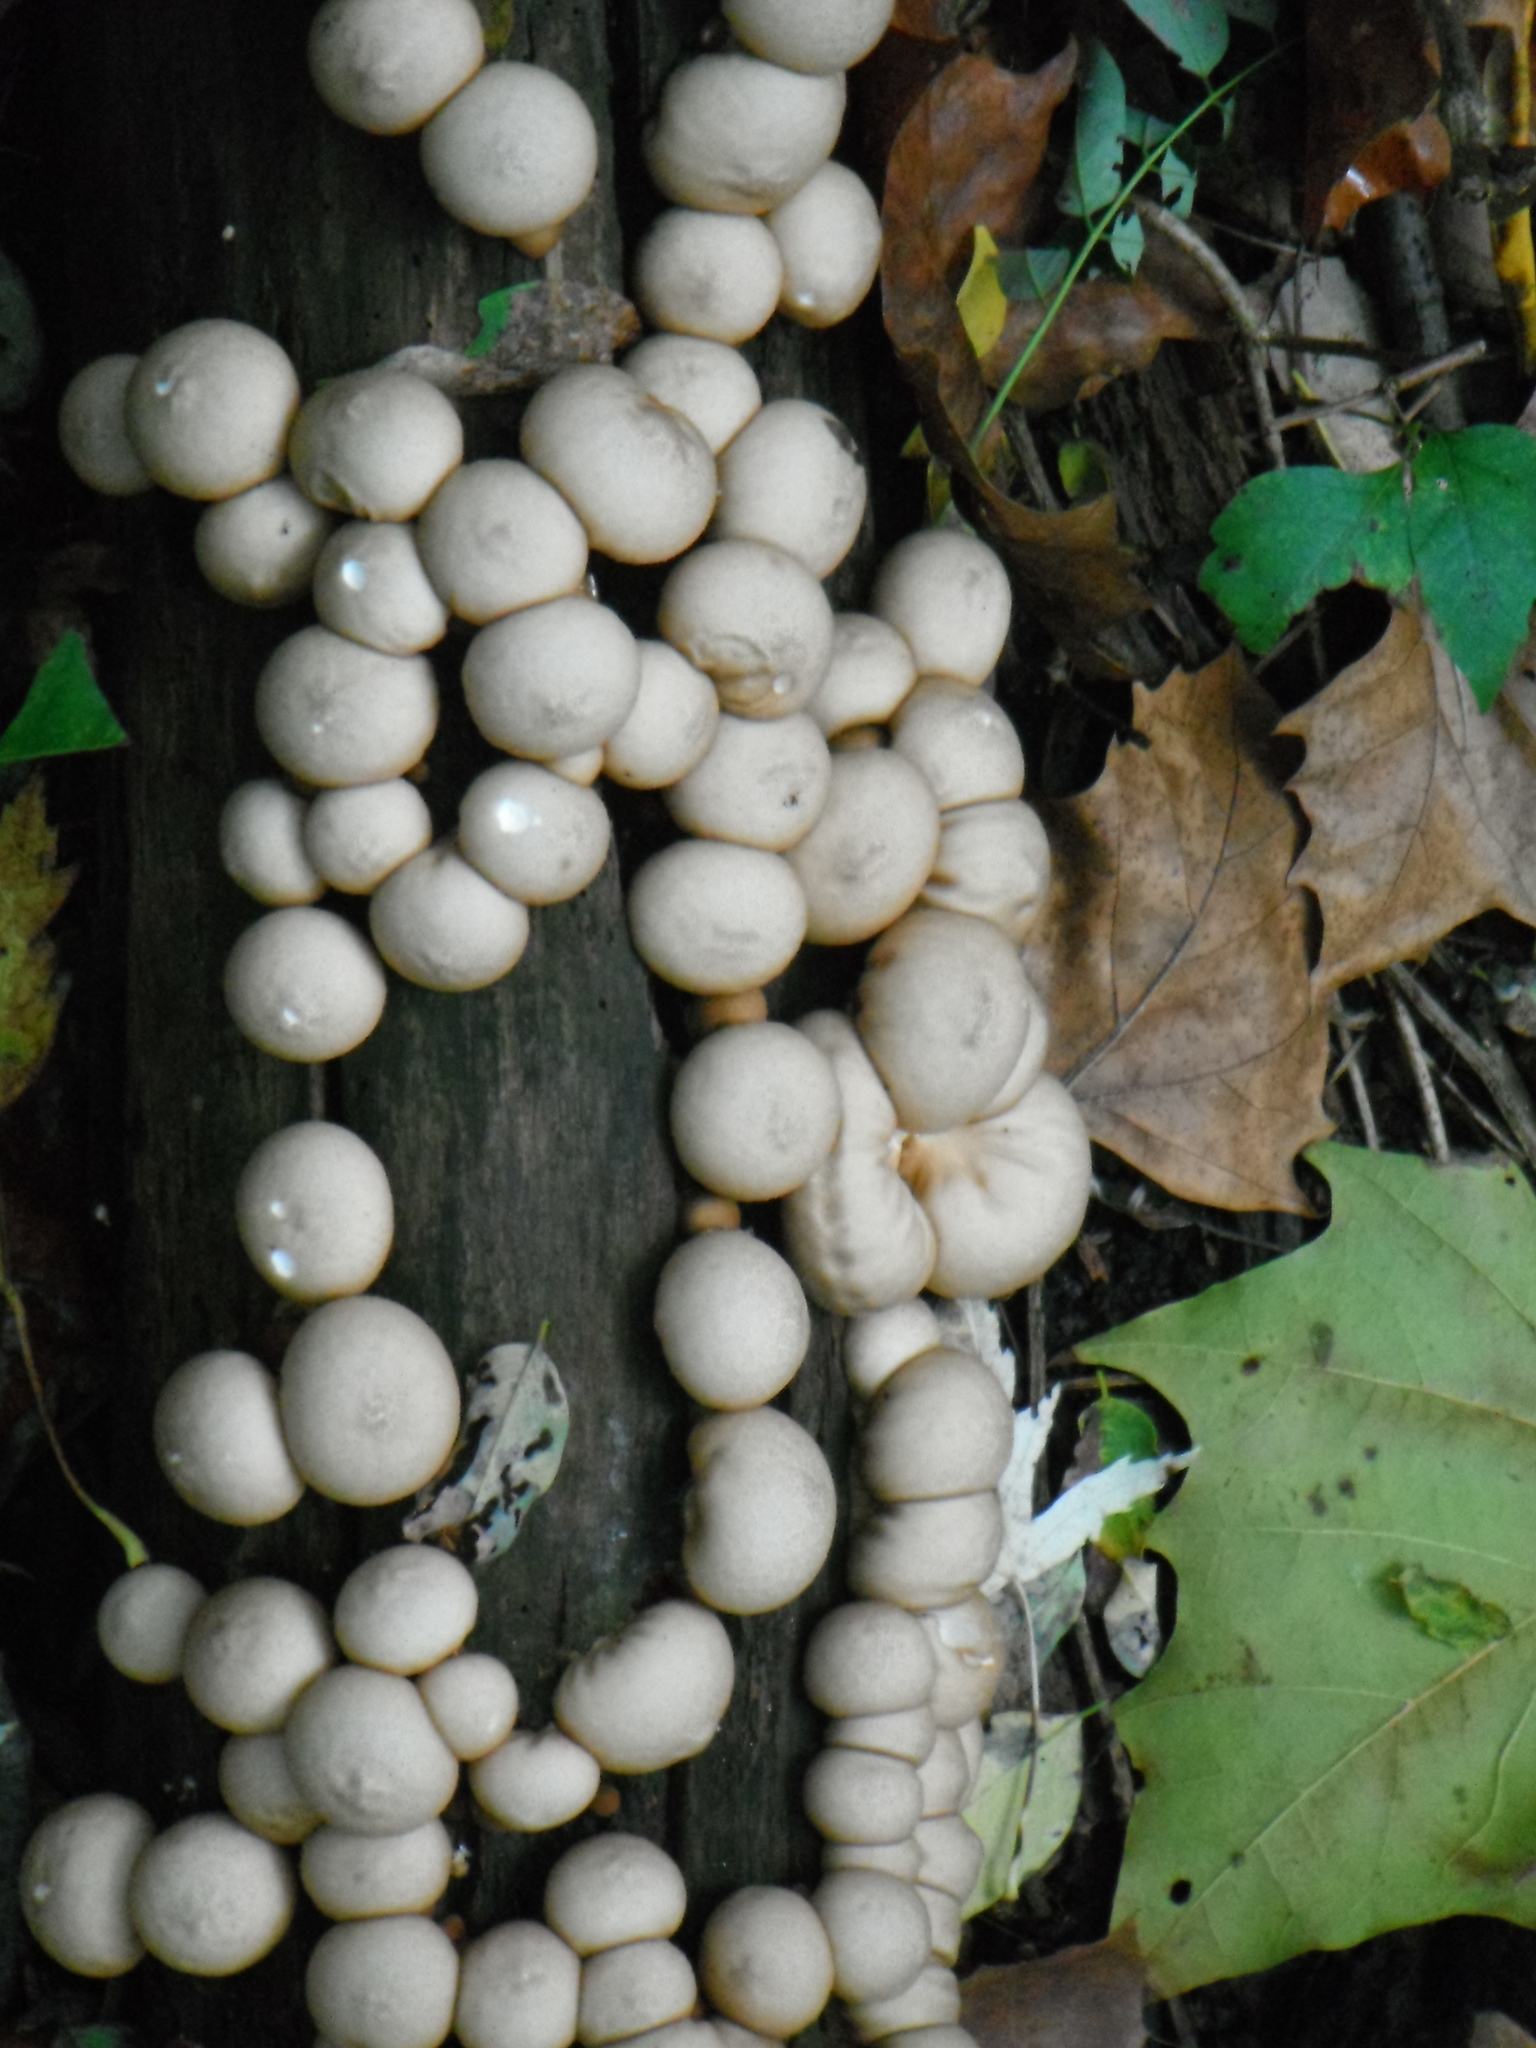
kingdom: Fungi
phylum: Basidiomycota
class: Agaricomycetes
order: Agaricales
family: Lycoperdaceae
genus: Apioperdon
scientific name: Apioperdon pyriforme
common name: Pear-shaped puffball
